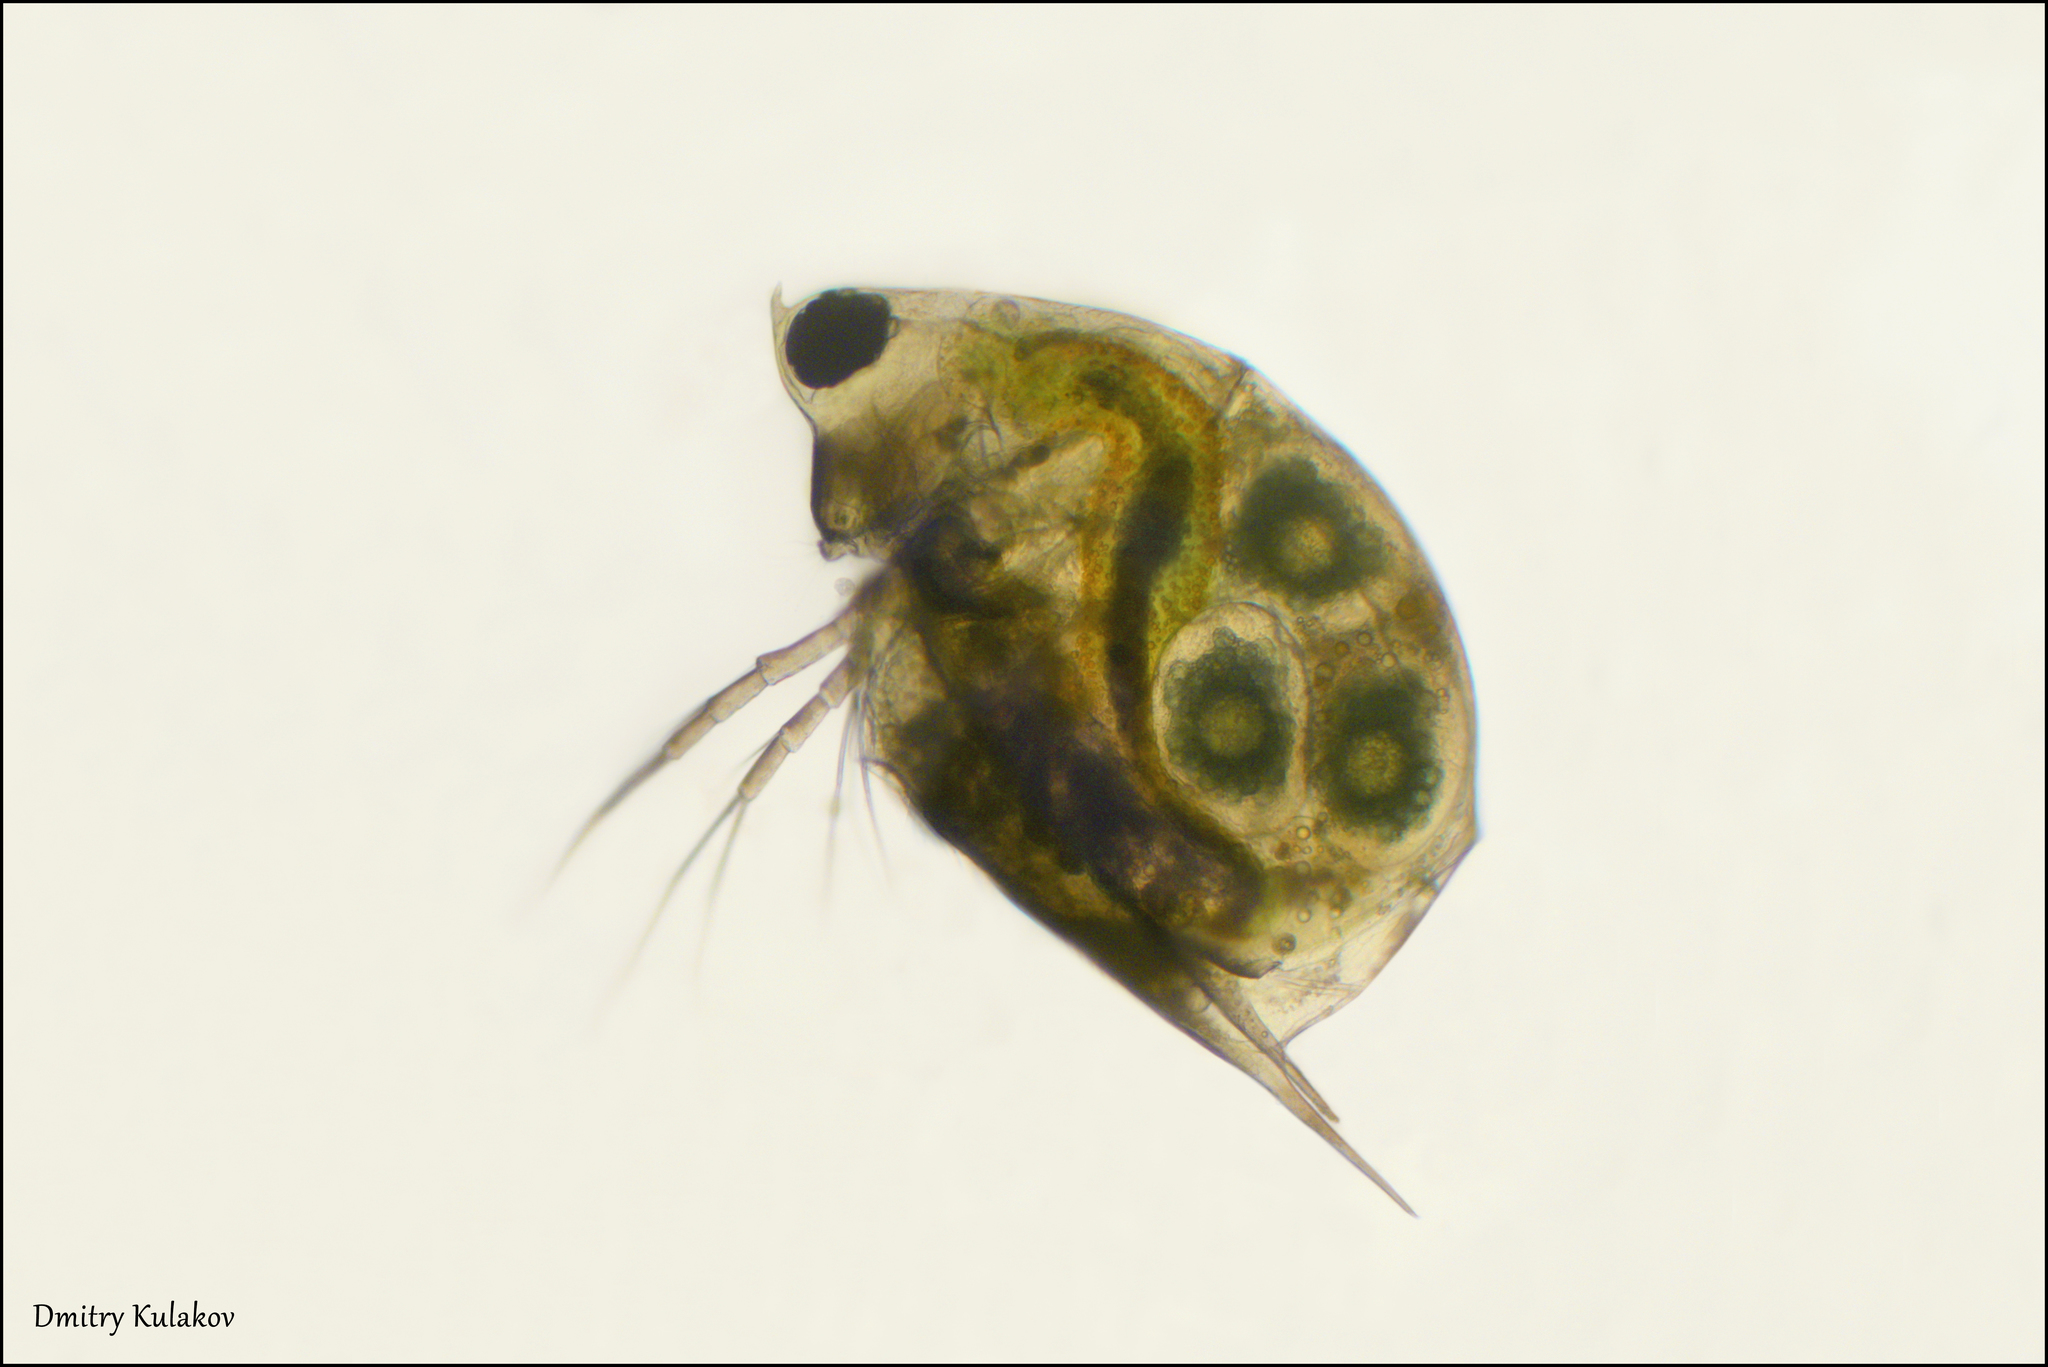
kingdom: Animalia
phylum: Arthropoda
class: Branchiopoda
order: Diplostraca
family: Daphniidae
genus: Scapholeberis
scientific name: Scapholeberis mucronata
